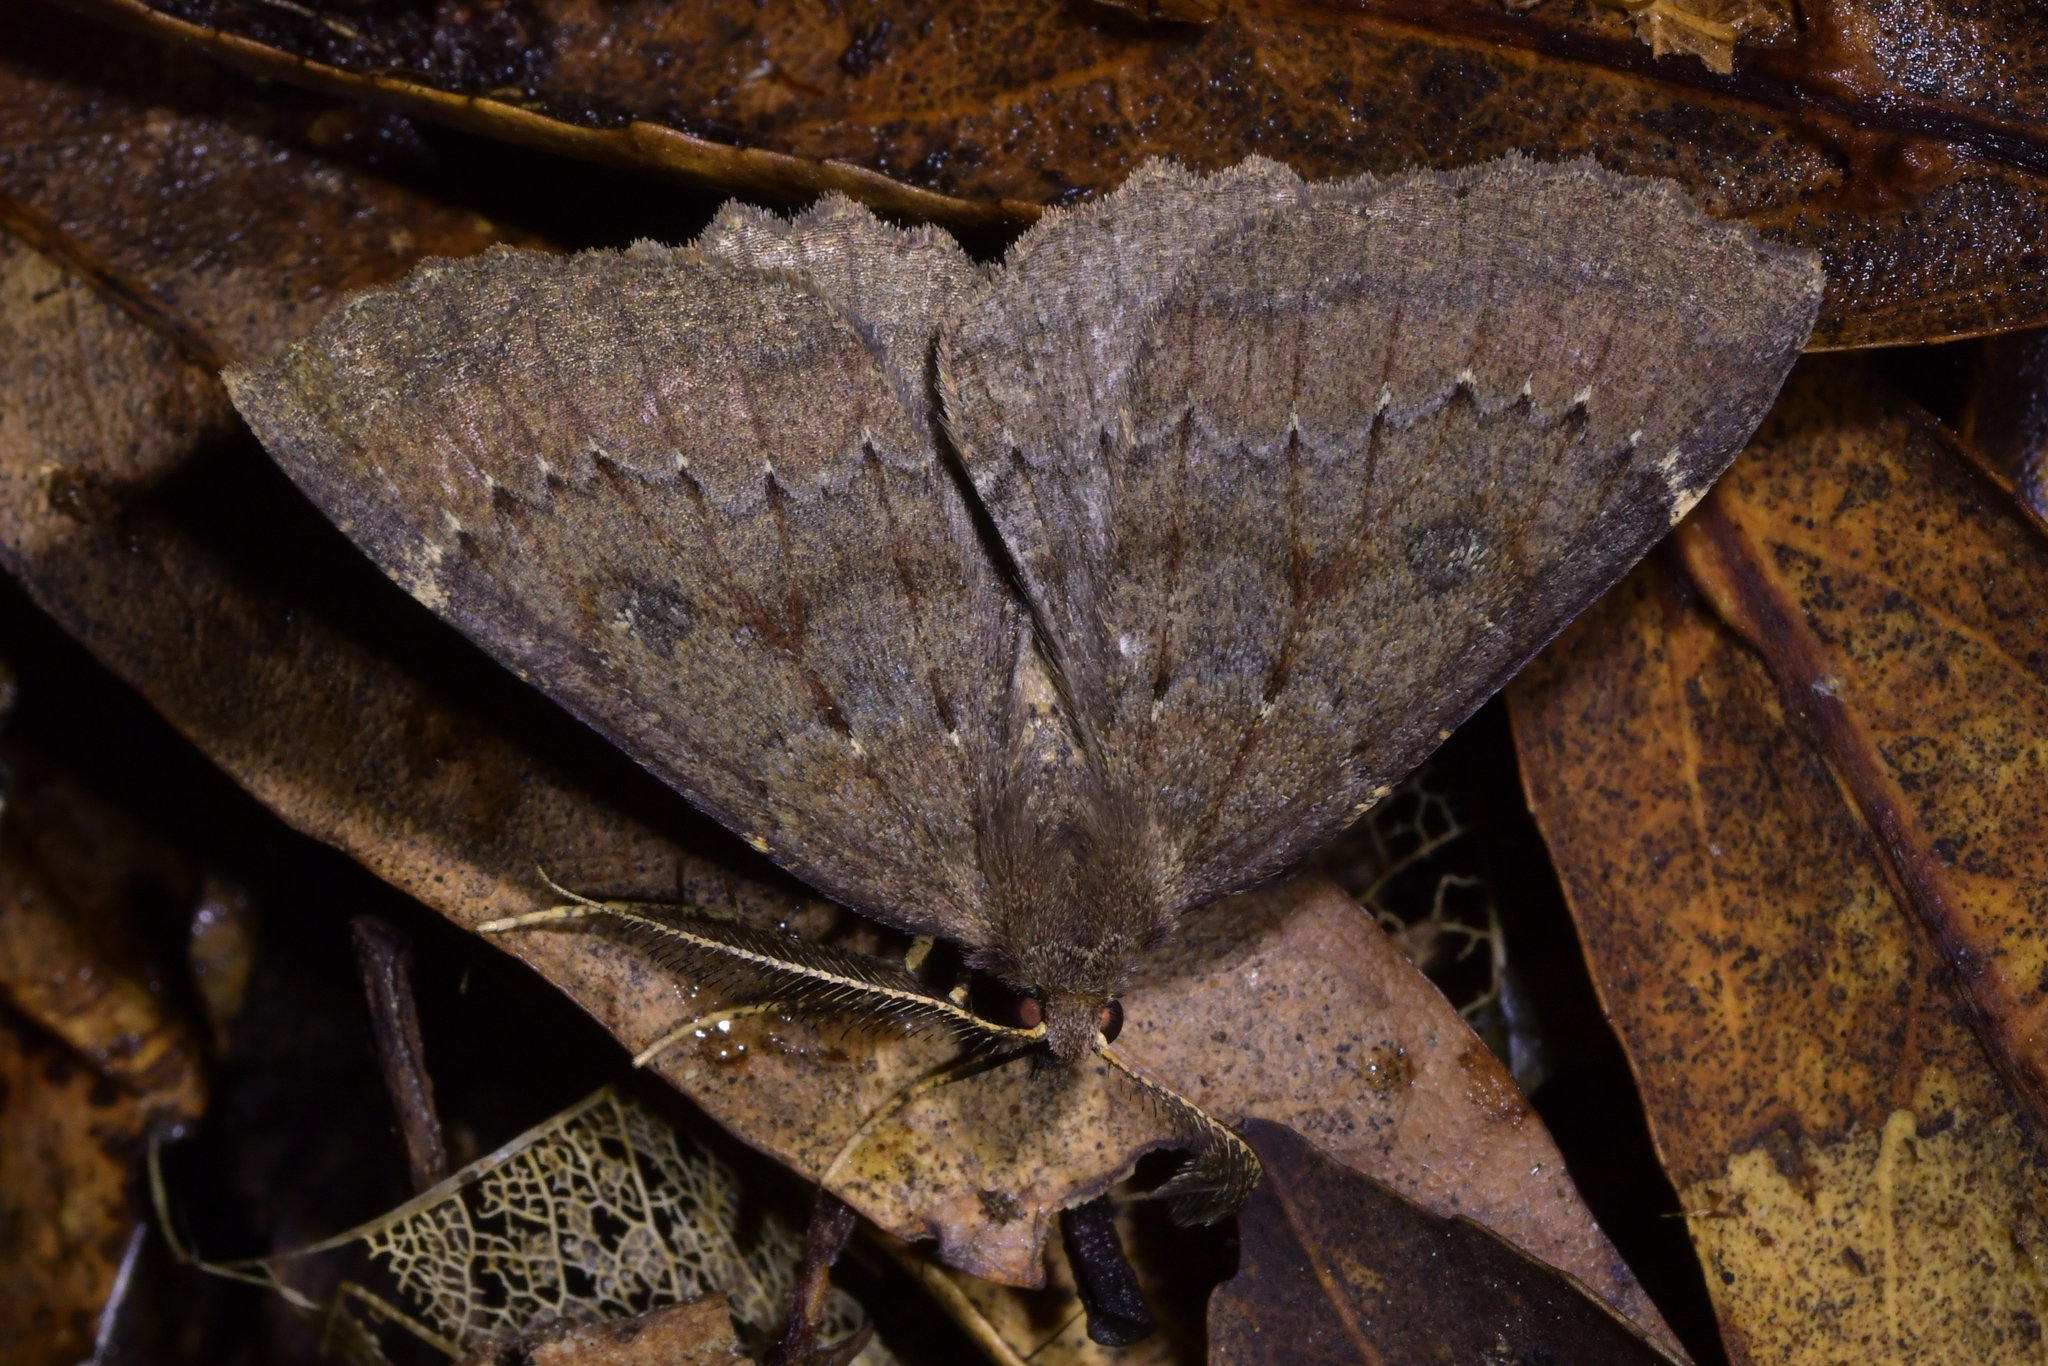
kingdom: Animalia
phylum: Arthropoda
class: Insecta
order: Lepidoptera
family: Geometridae
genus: Cleora
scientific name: Cleora scriptaria
